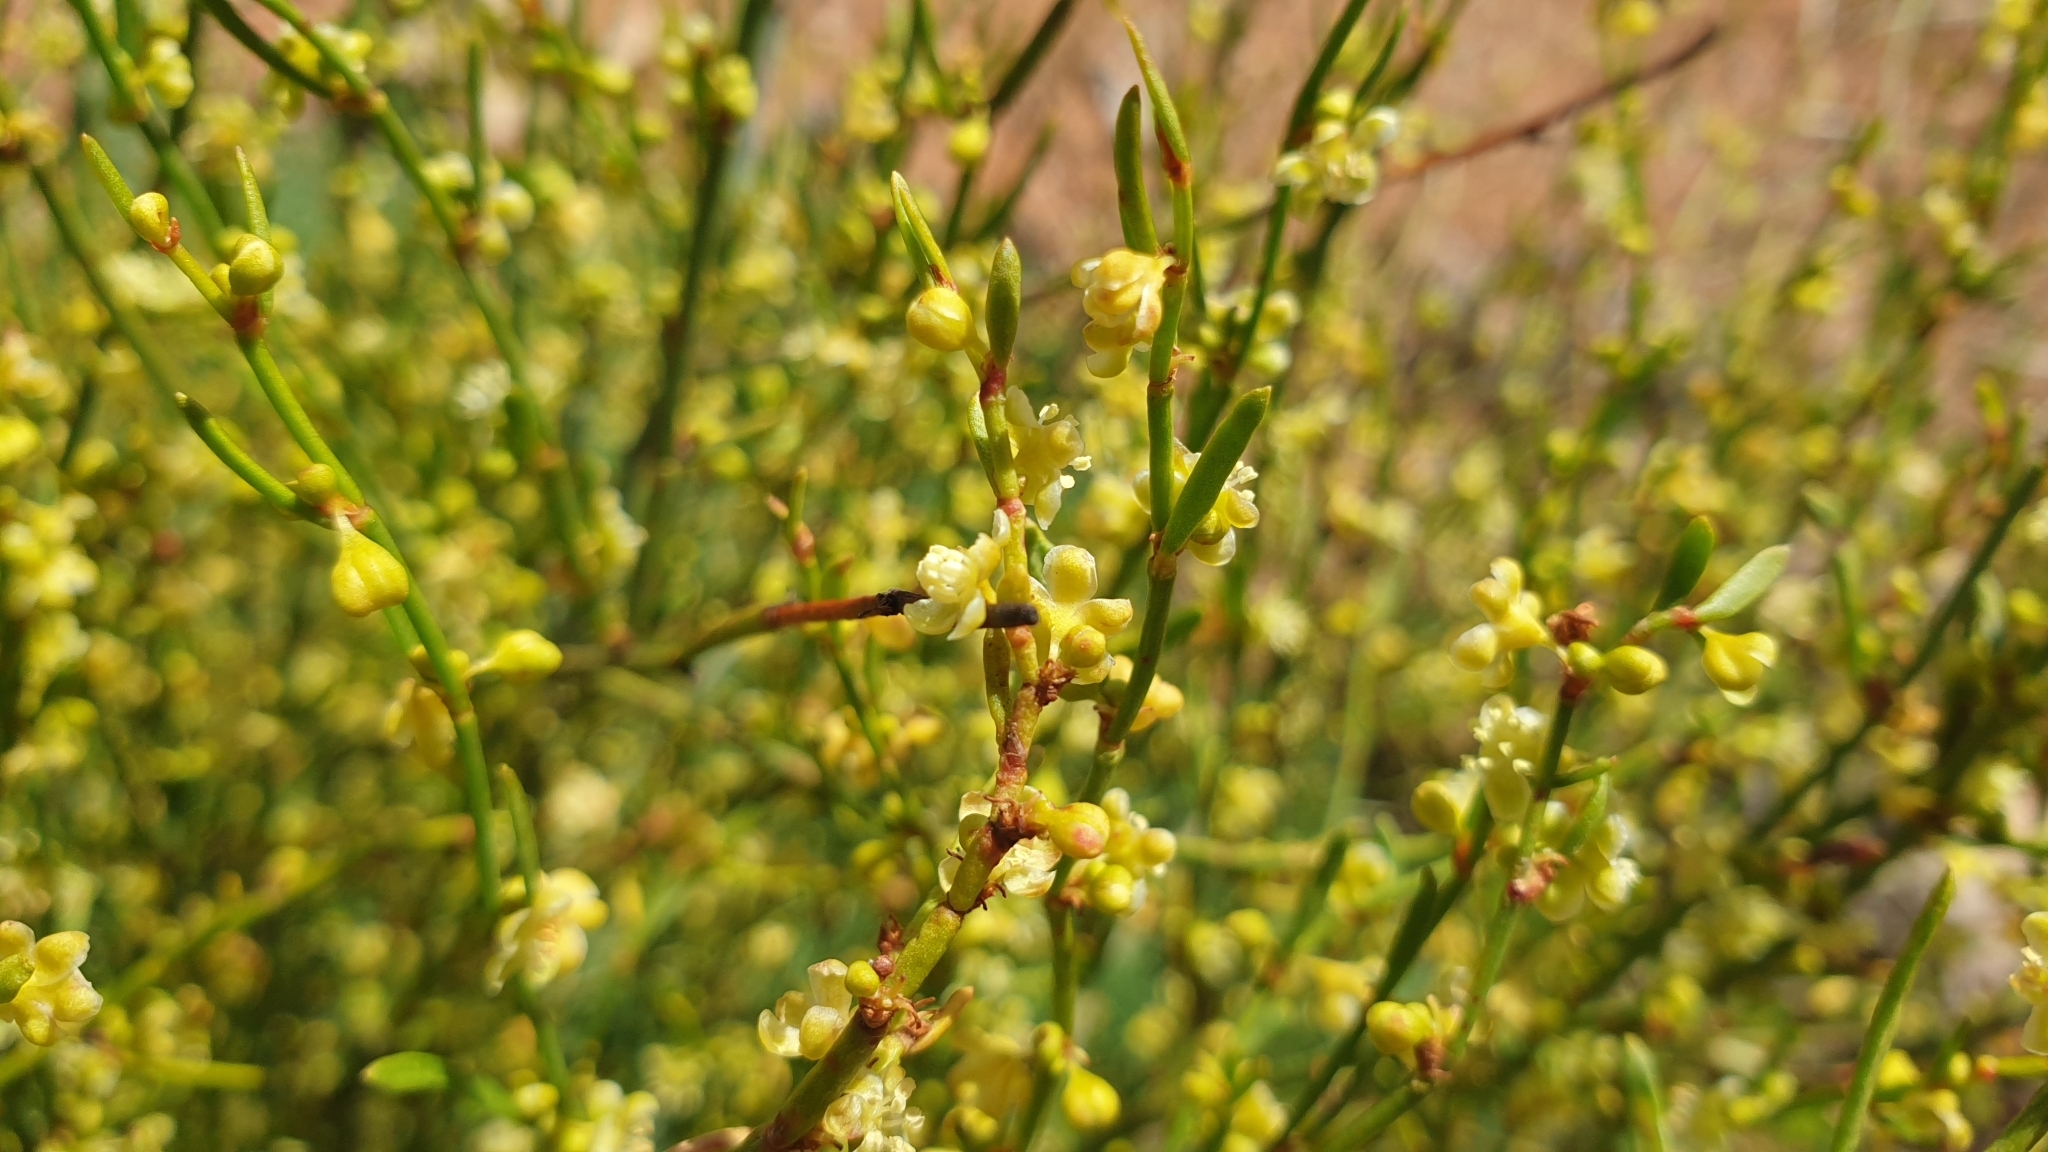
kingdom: Plantae
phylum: Tracheophyta
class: Magnoliopsida
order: Caryophyllales
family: Polygonaceae
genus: Muehlenbeckia
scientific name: Muehlenbeckia diclina
